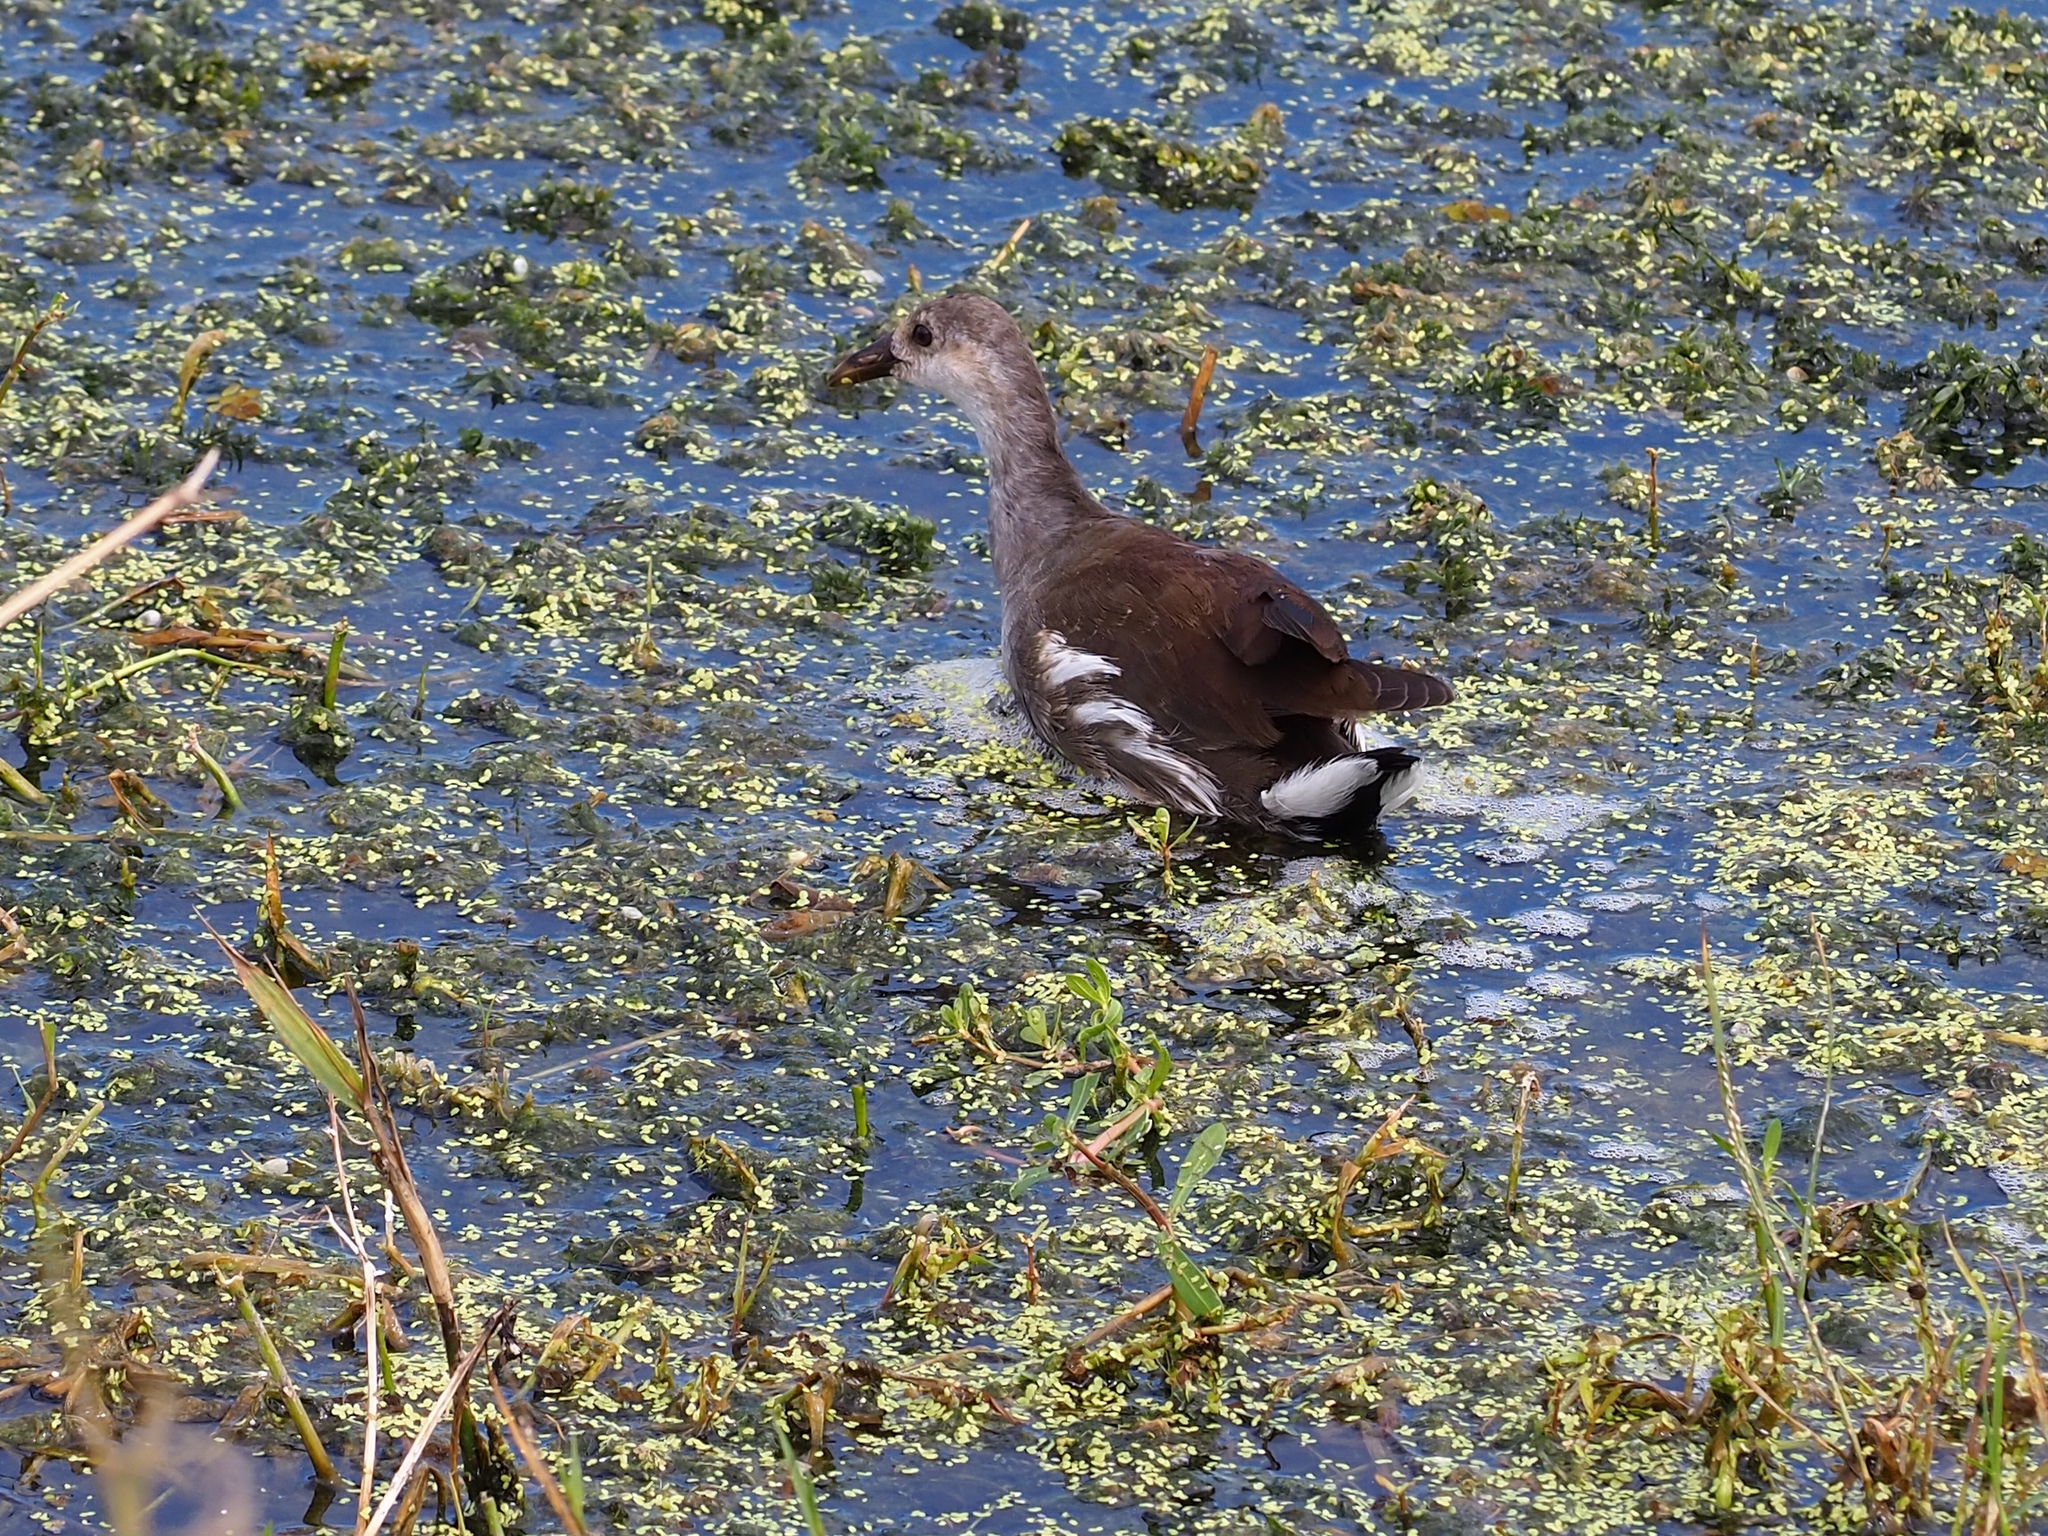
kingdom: Animalia
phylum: Chordata
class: Aves
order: Gruiformes
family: Rallidae
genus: Gallinula
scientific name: Gallinula chloropus
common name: Common moorhen
